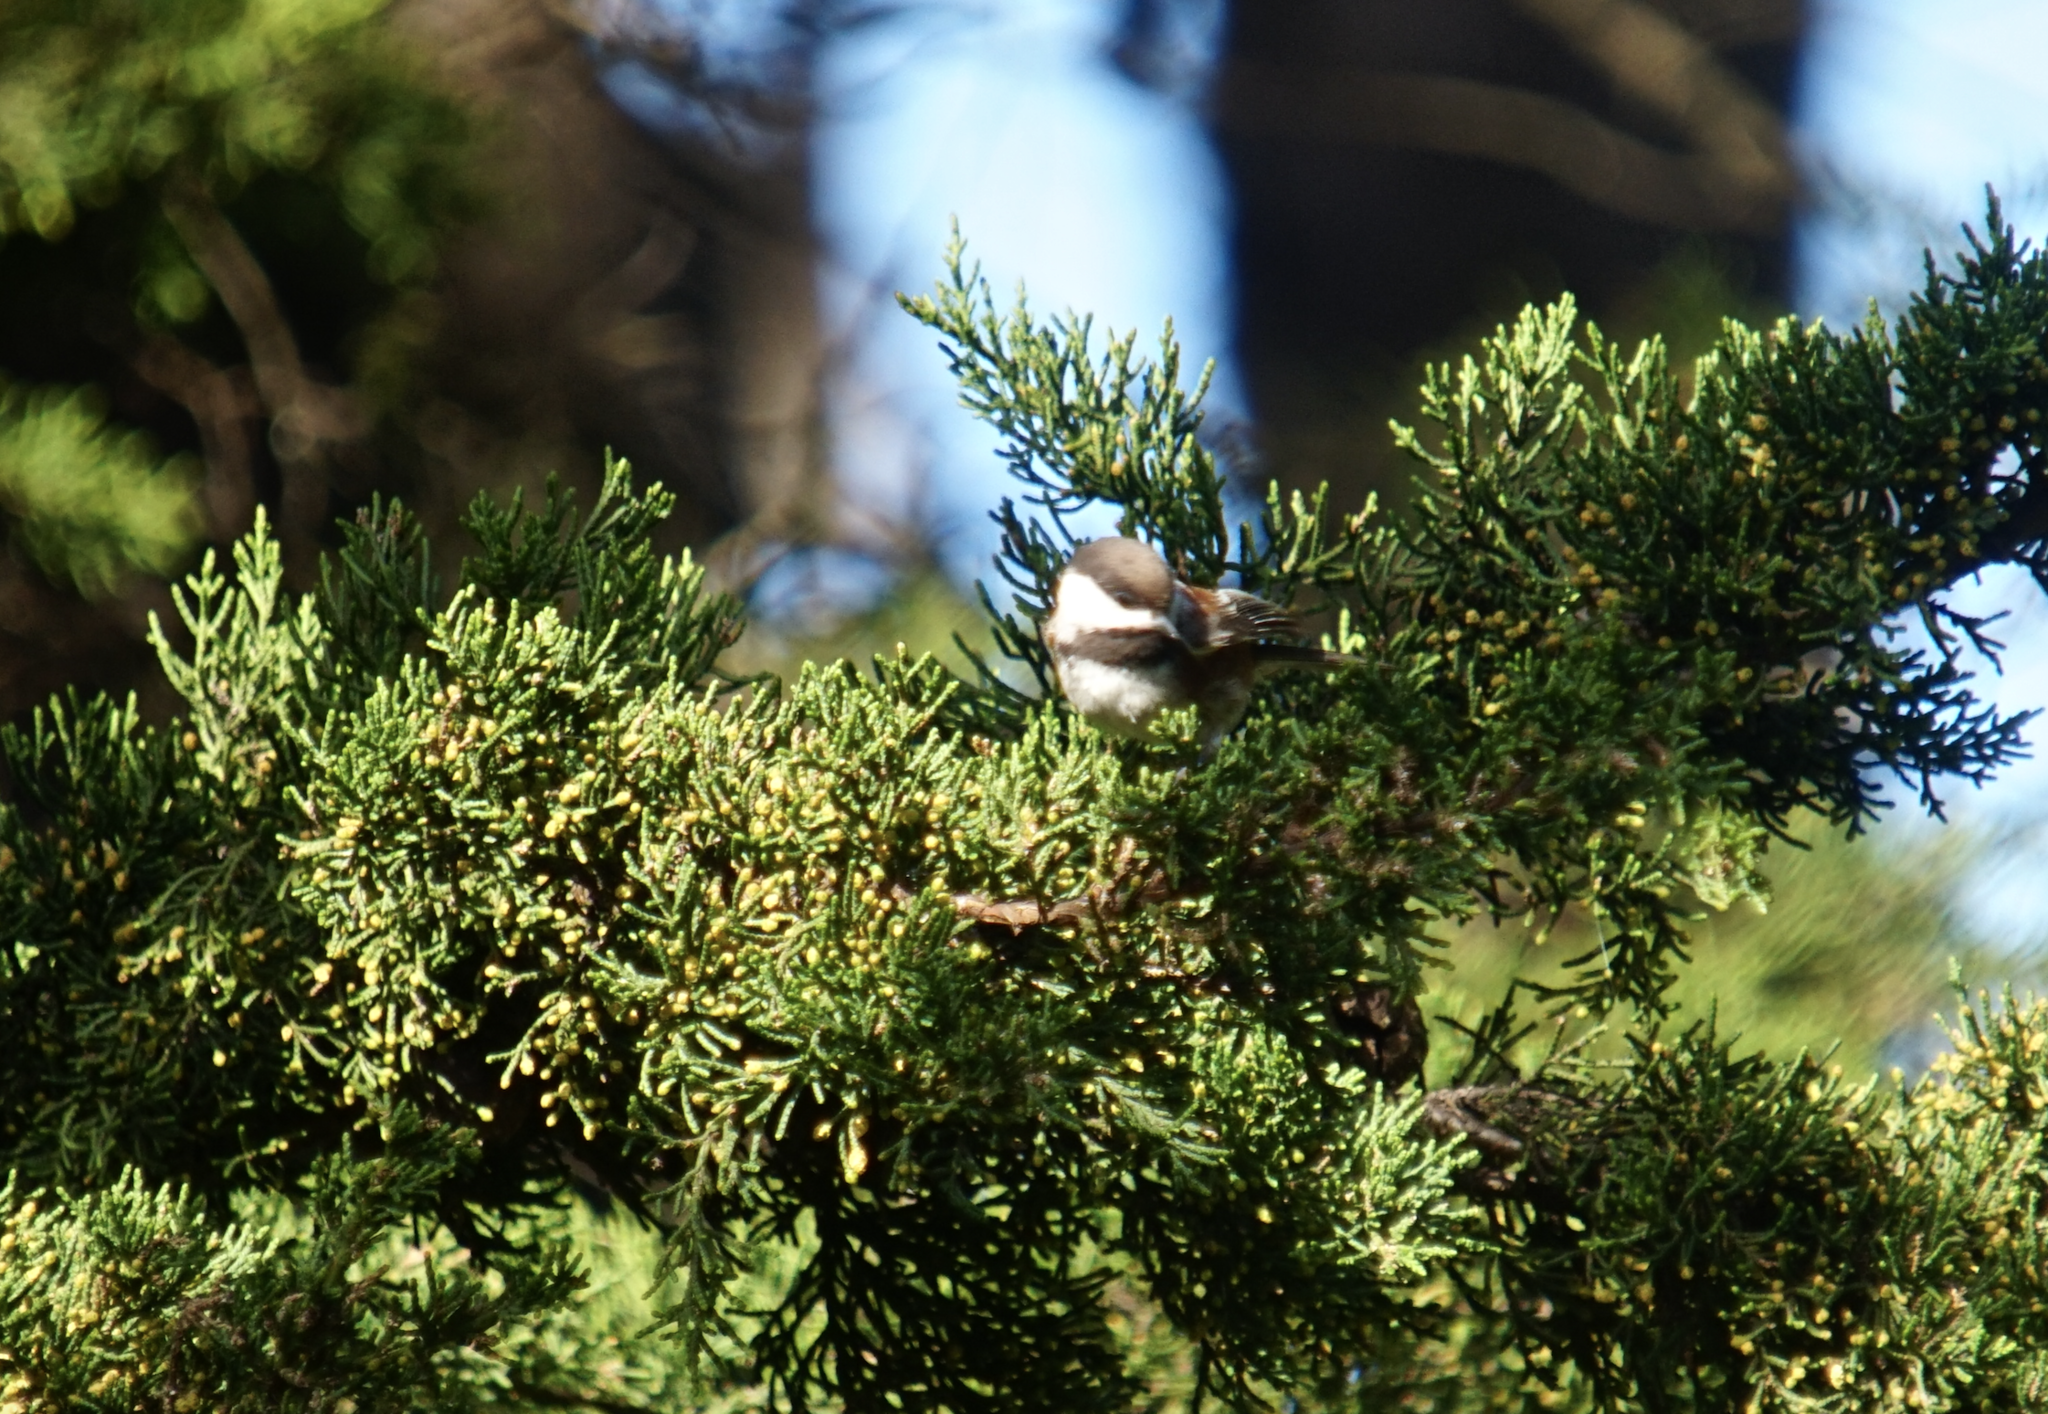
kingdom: Animalia
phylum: Chordata
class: Aves
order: Passeriformes
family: Paridae
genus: Poecile
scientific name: Poecile rufescens
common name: Chestnut-backed chickadee
